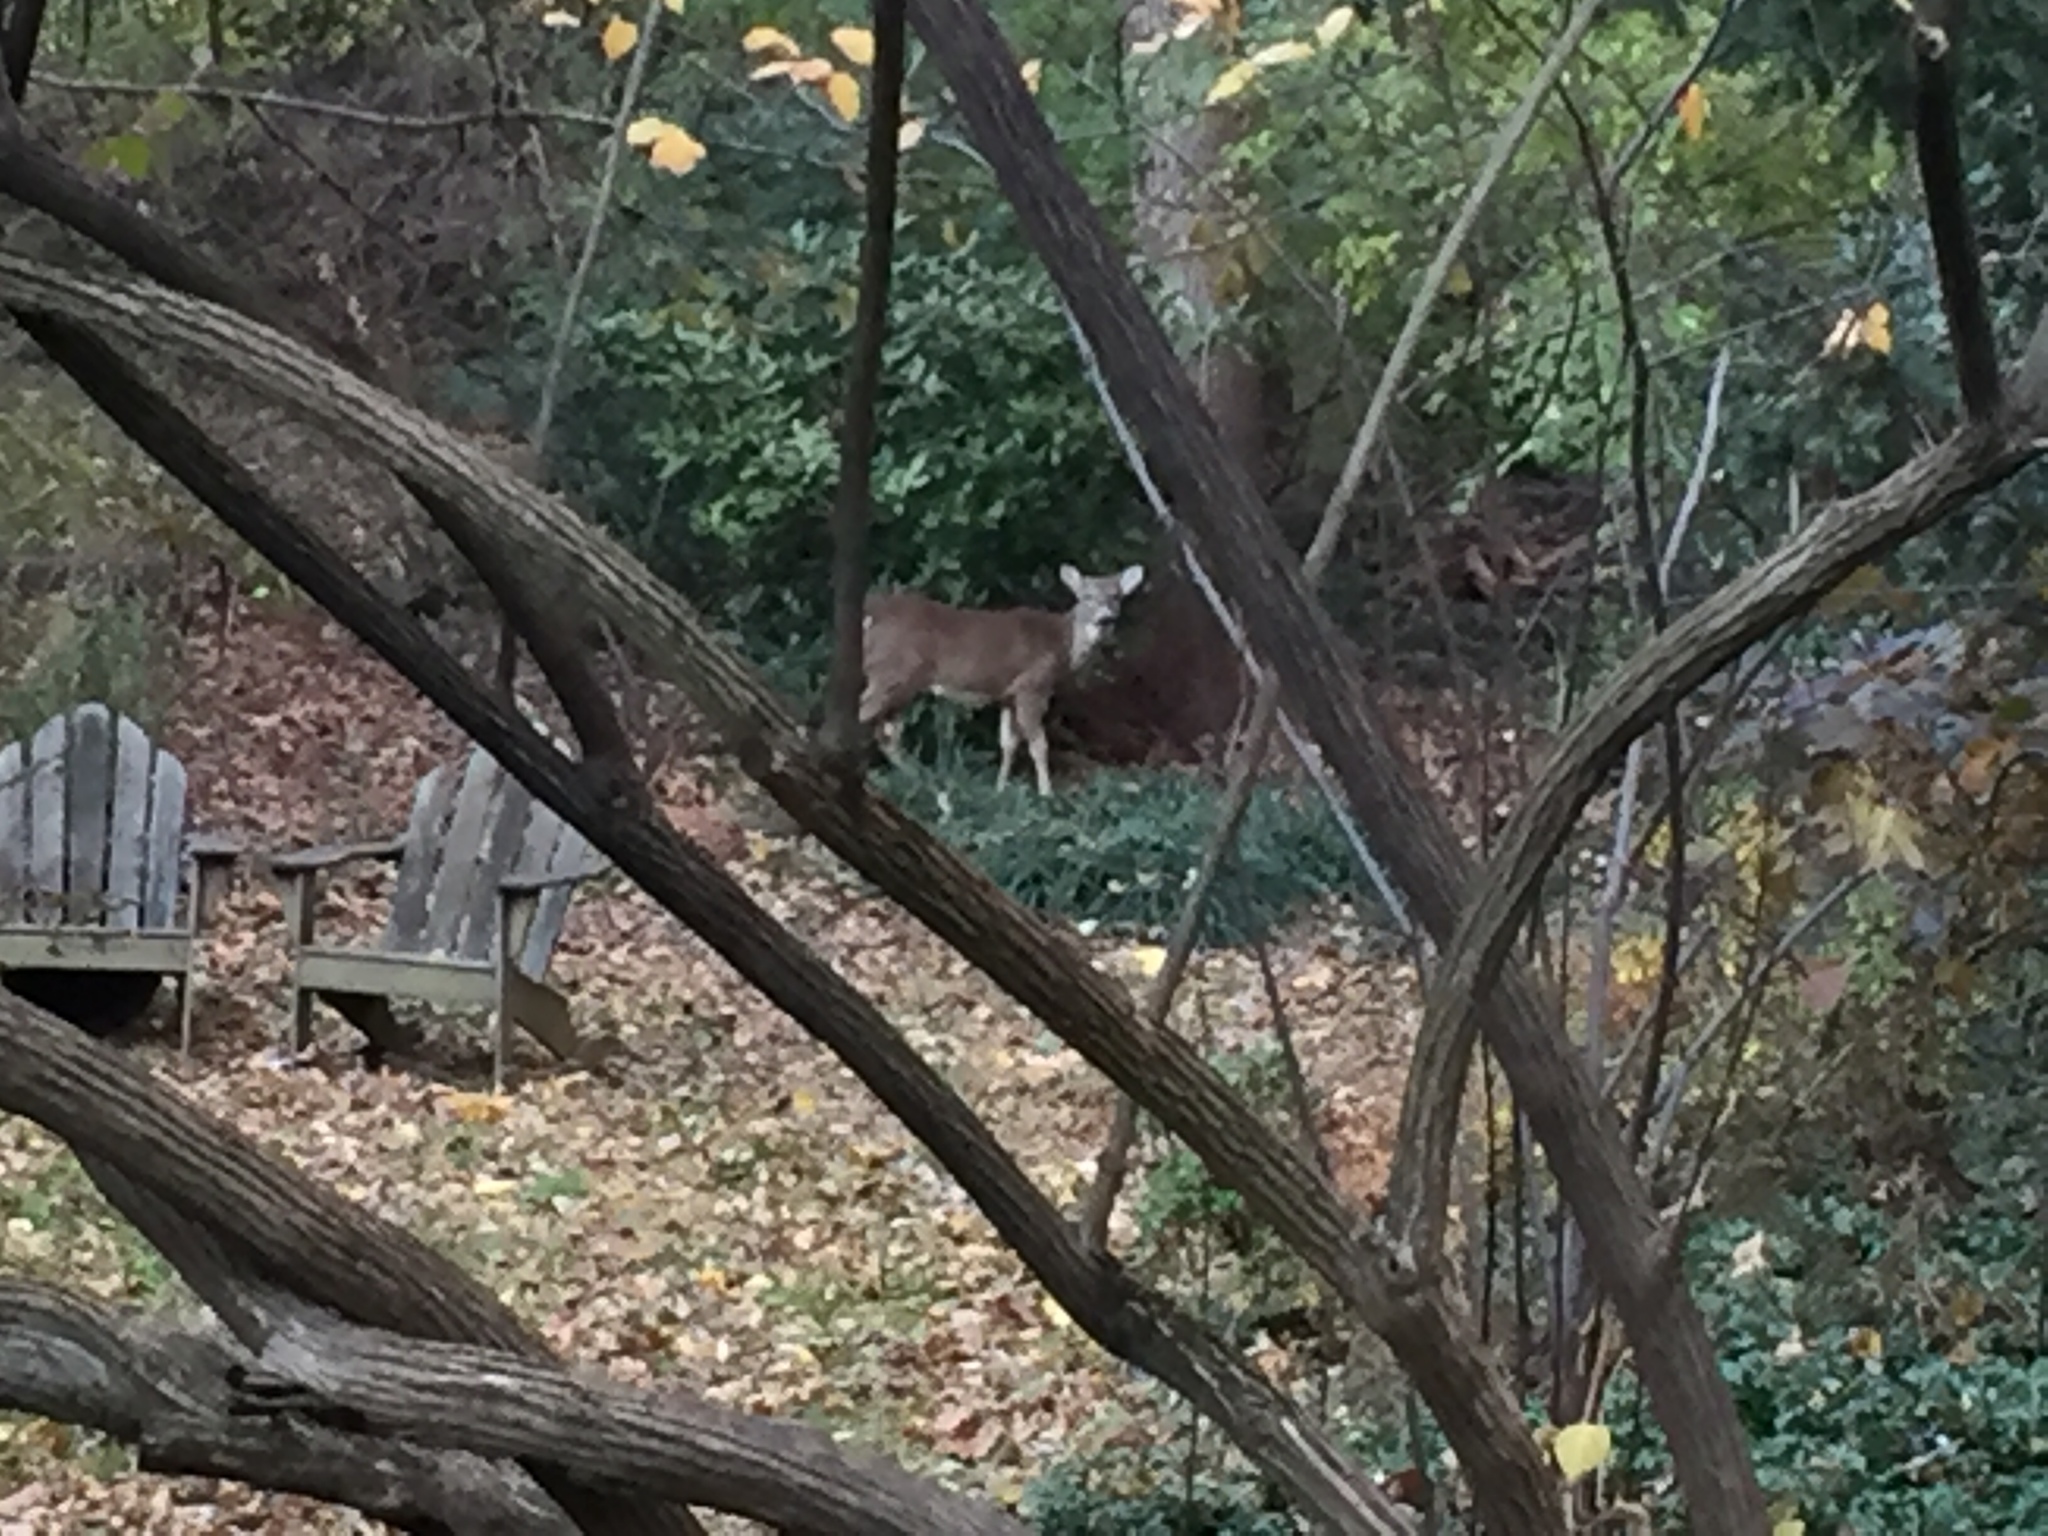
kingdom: Animalia
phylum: Chordata
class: Mammalia
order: Artiodactyla
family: Cervidae
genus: Odocoileus
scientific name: Odocoileus virginianus
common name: White-tailed deer
